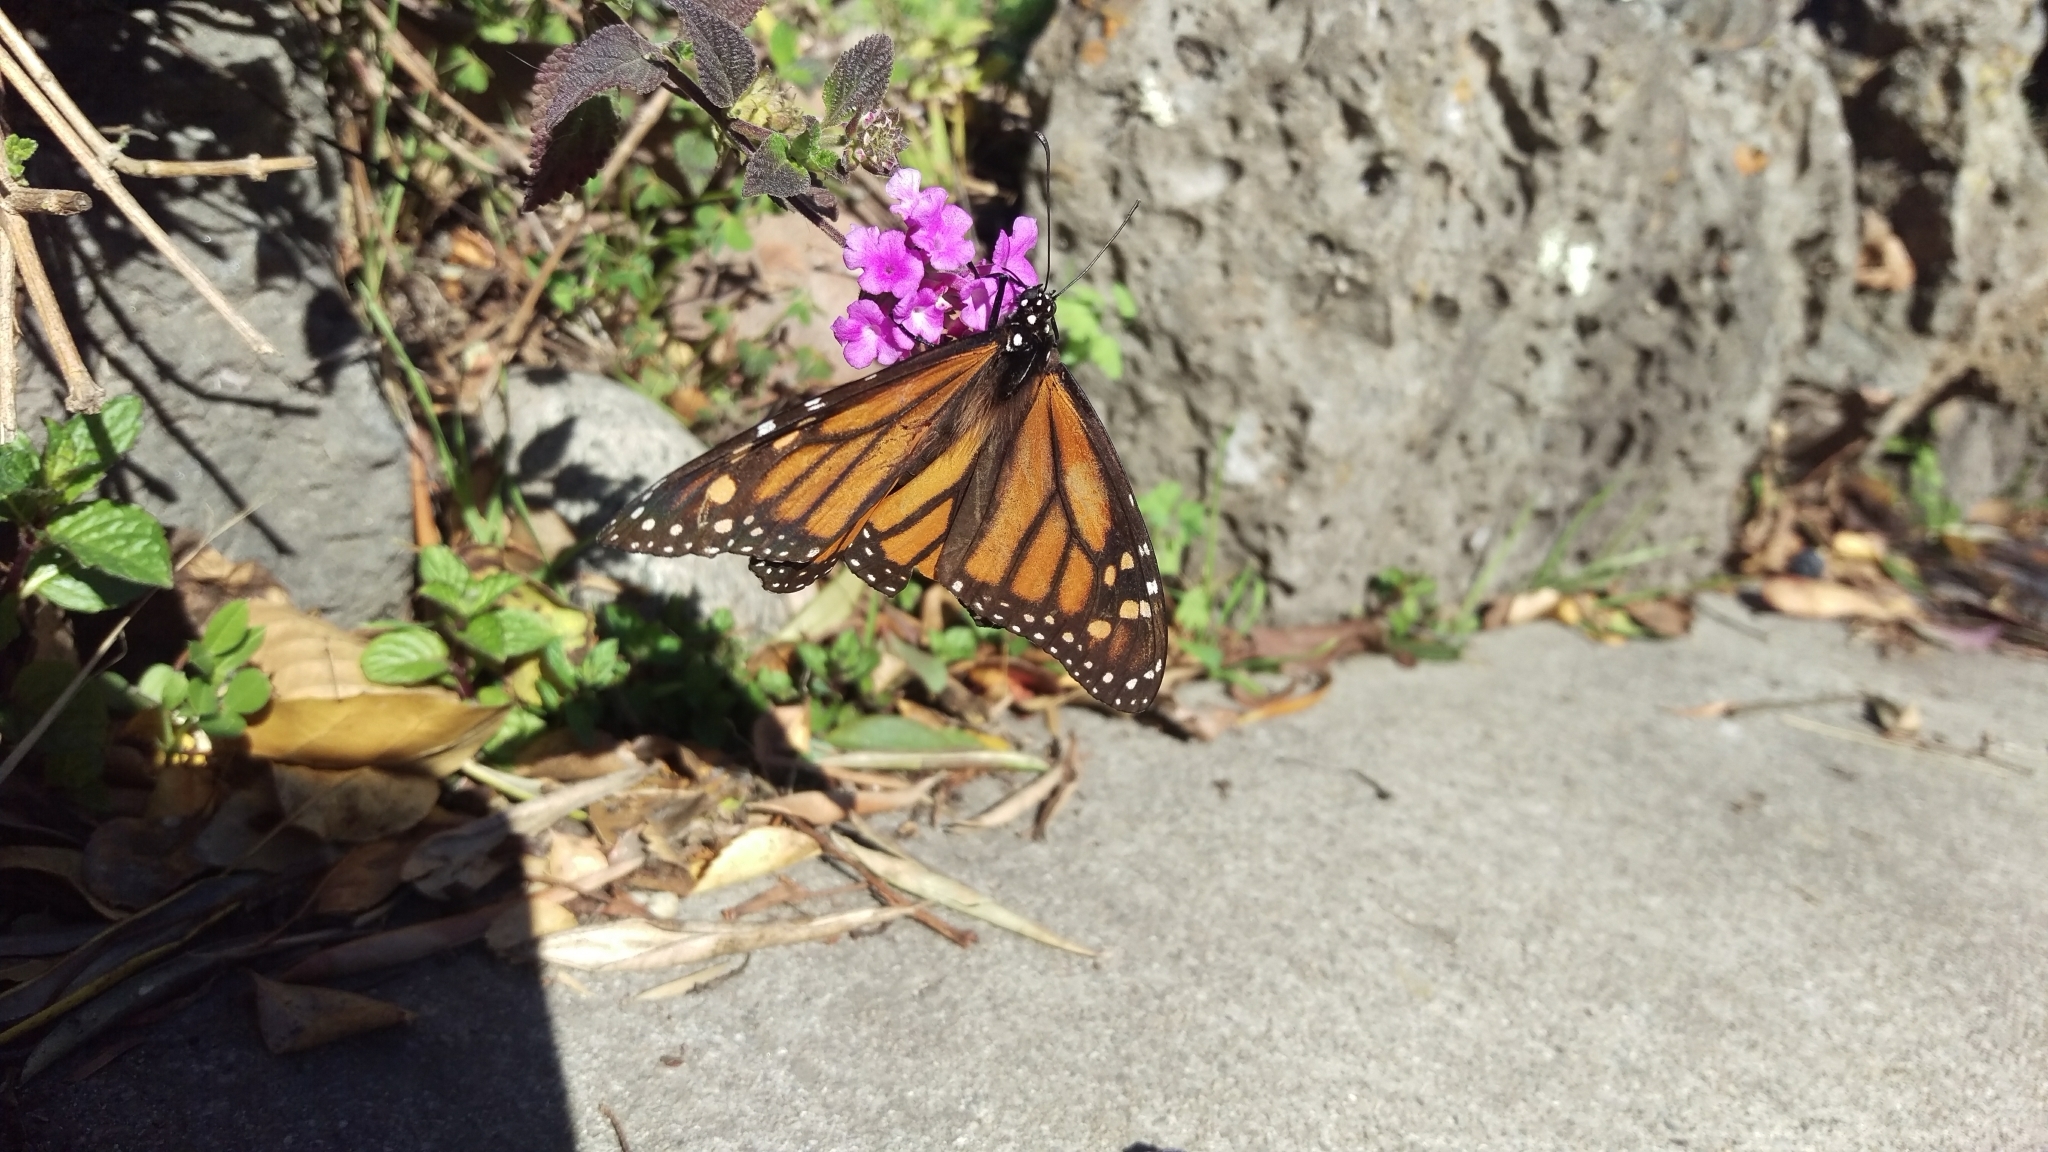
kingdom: Animalia
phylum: Arthropoda
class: Insecta
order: Lepidoptera
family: Nymphalidae
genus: Danaus
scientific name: Danaus plexippus
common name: Monarch
